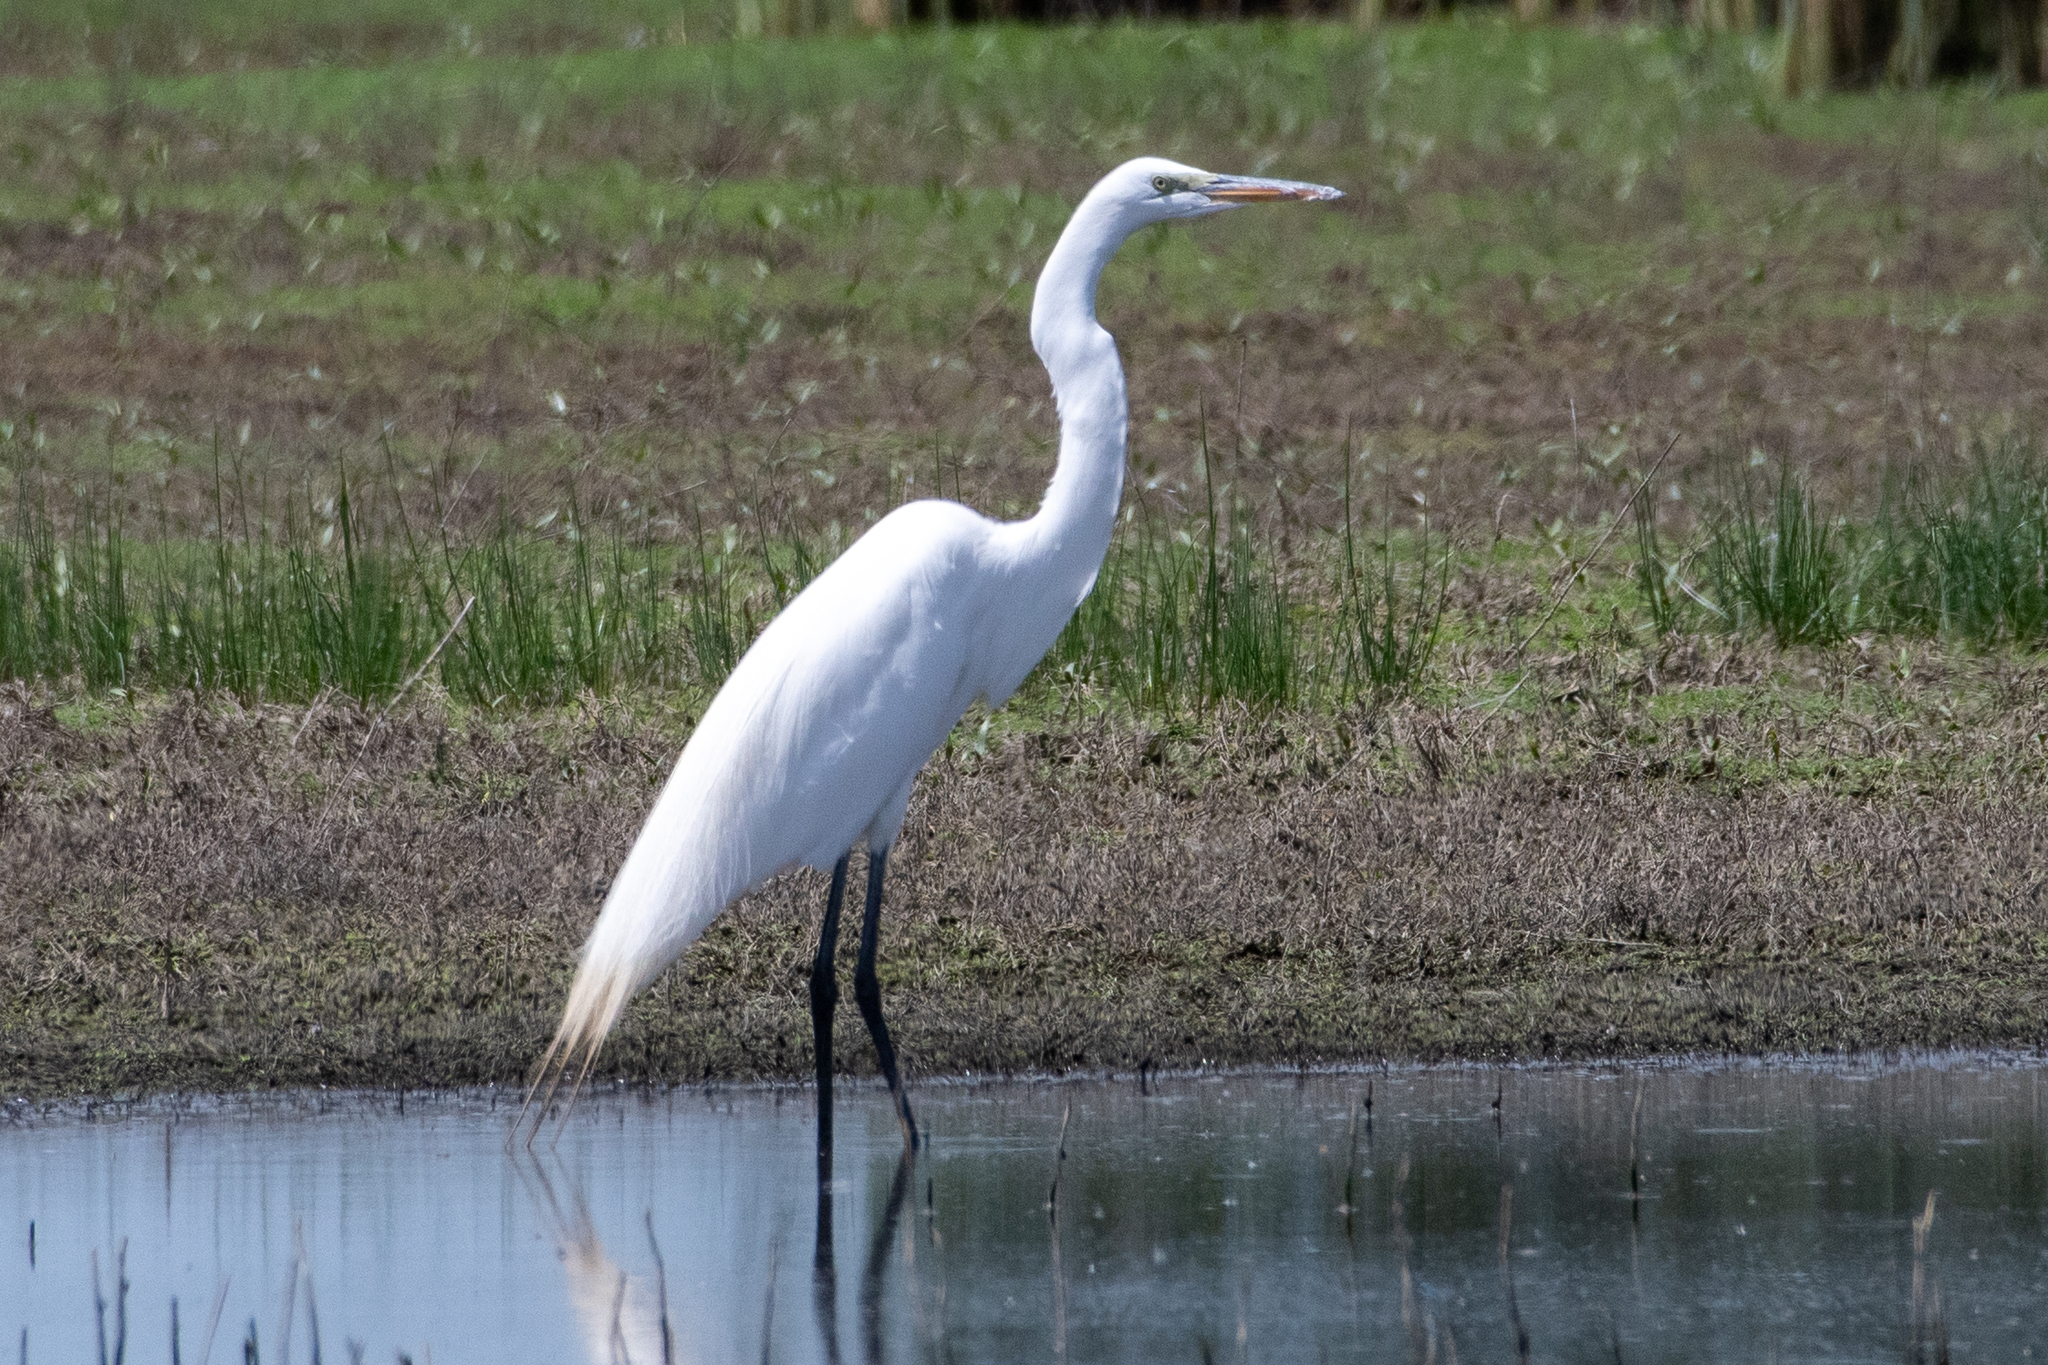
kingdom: Animalia
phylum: Chordata
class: Aves
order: Pelecaniformes
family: Ardeidae
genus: Ardea
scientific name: Ardea alba
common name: Great egret
